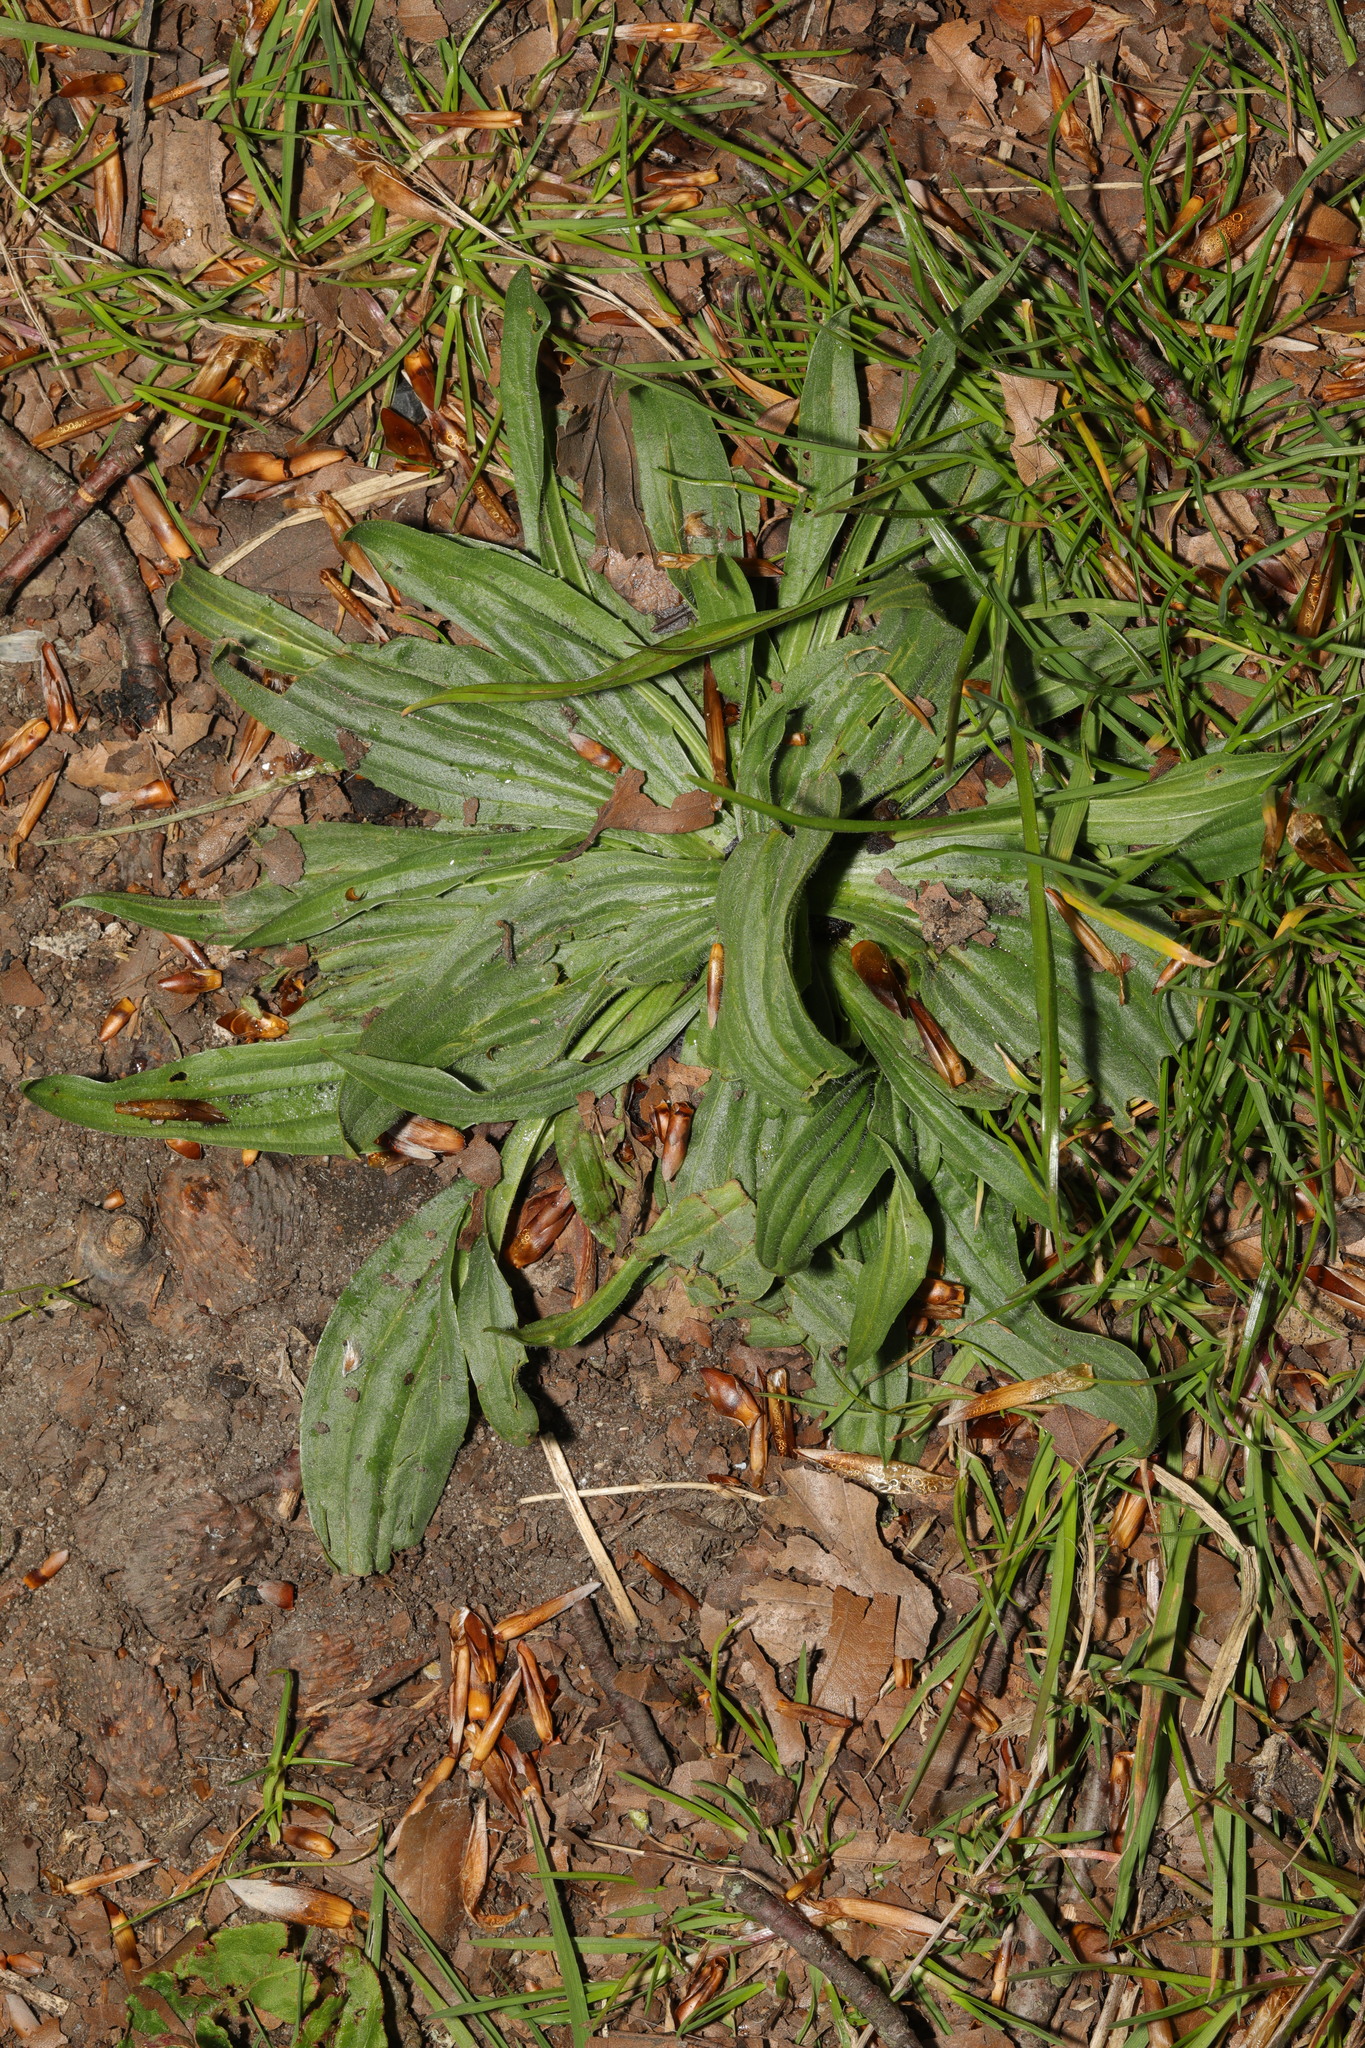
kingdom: Plantae
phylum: Tracheophyta
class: Magnoliopsida
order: Lamiales
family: Plantaginaceae
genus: Plantago
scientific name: Plantago lanceolata
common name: Ribwort plantain
